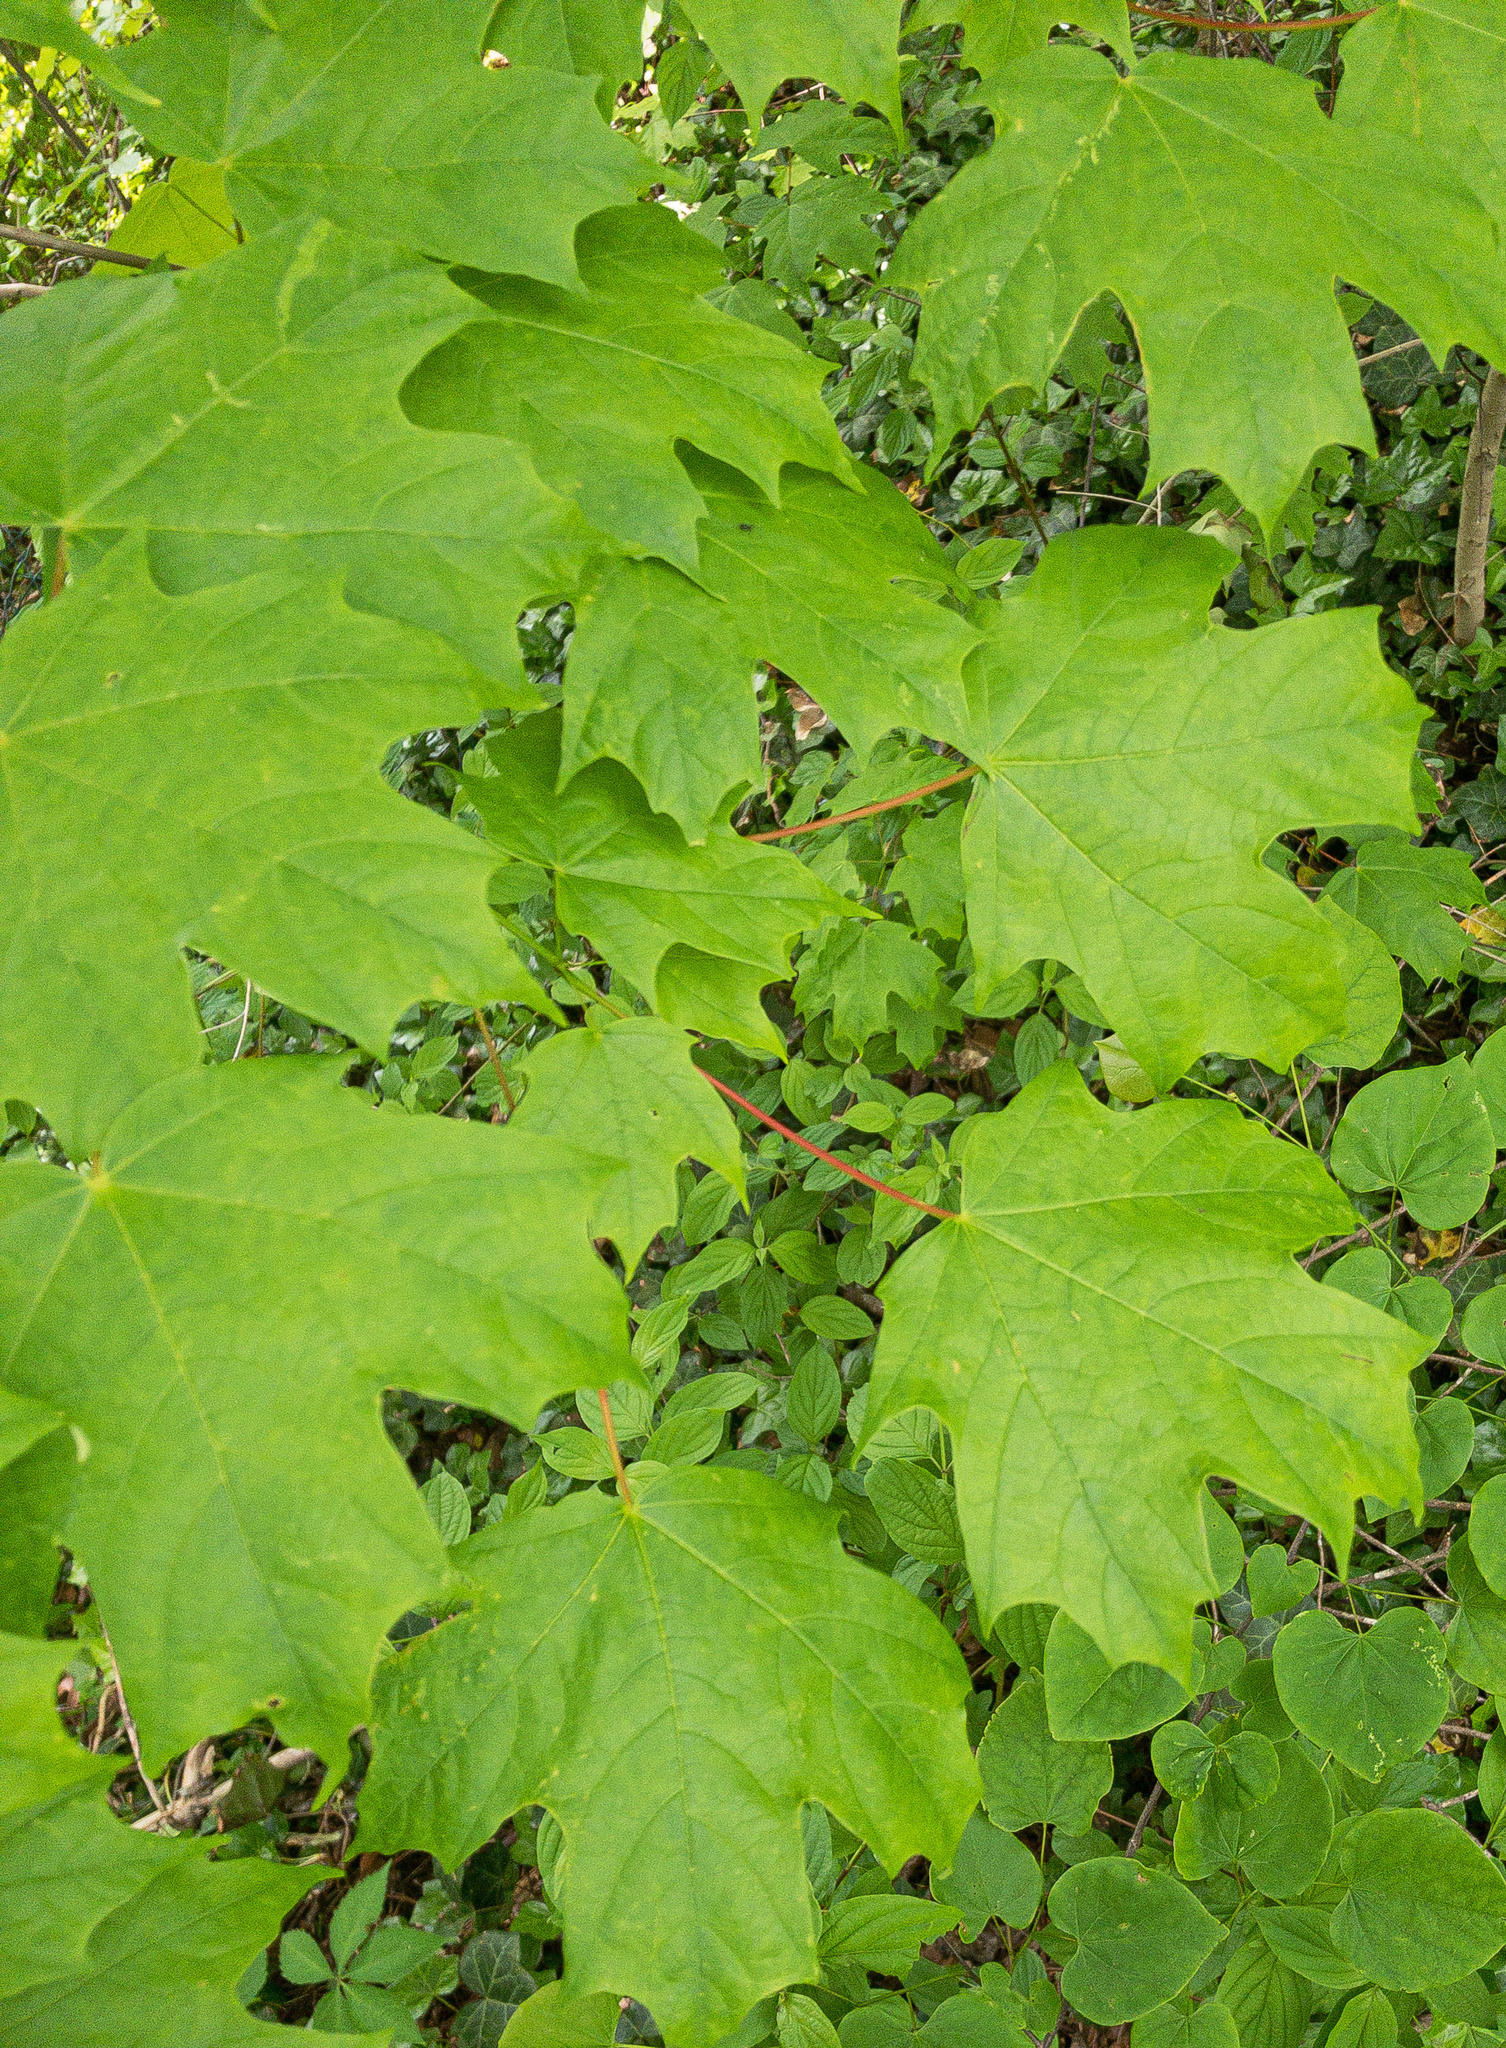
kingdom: Plantae
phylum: Tracheophyta
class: Magnoliopsida
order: Sapindales
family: Sapindaceae
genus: Acer
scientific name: Acer saccharum
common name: Sugar maple
